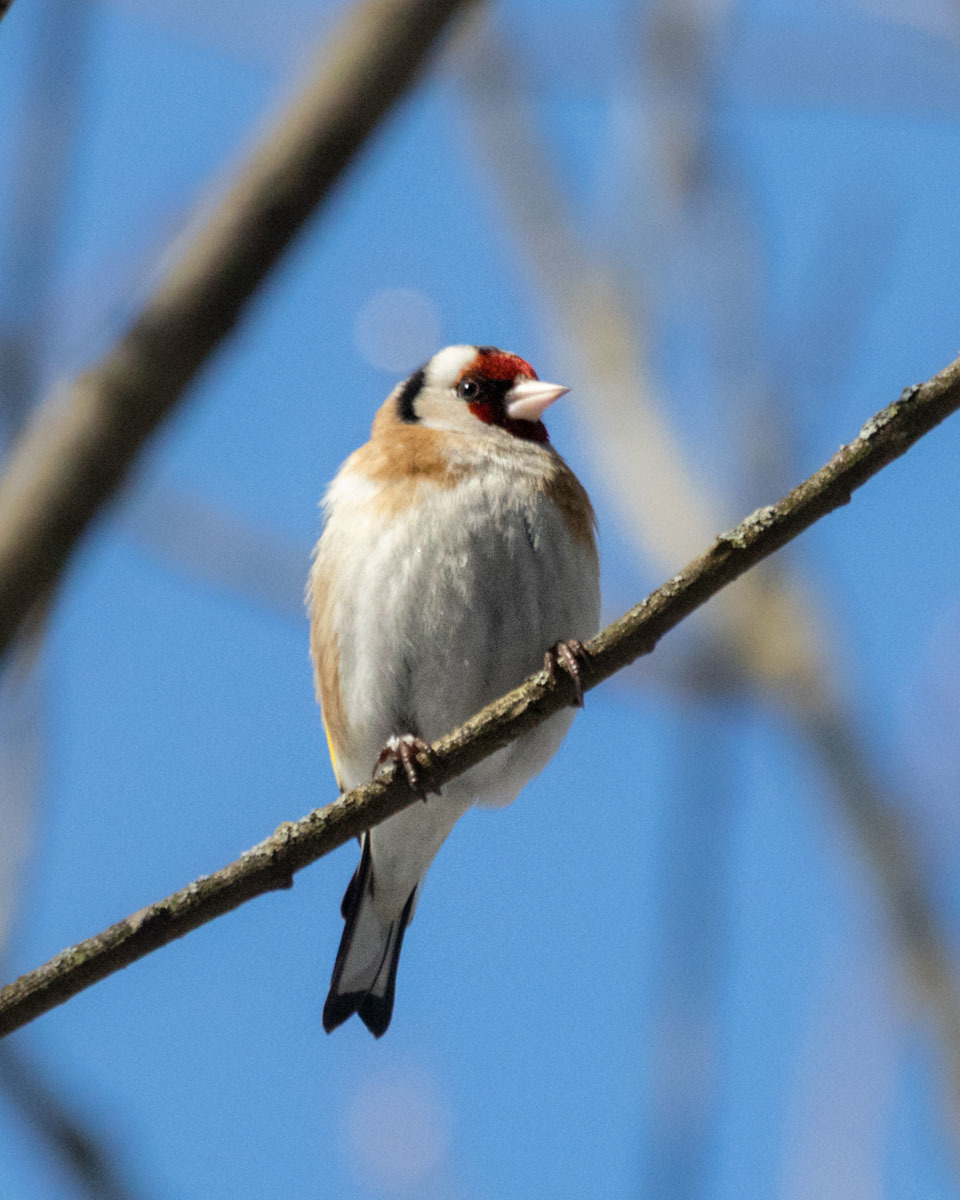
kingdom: Animalia
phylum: Chordata
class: Aves
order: Passeriformes
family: Fringillidae
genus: Carduelis
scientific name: Carduelis carduelis
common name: European goldfinch
